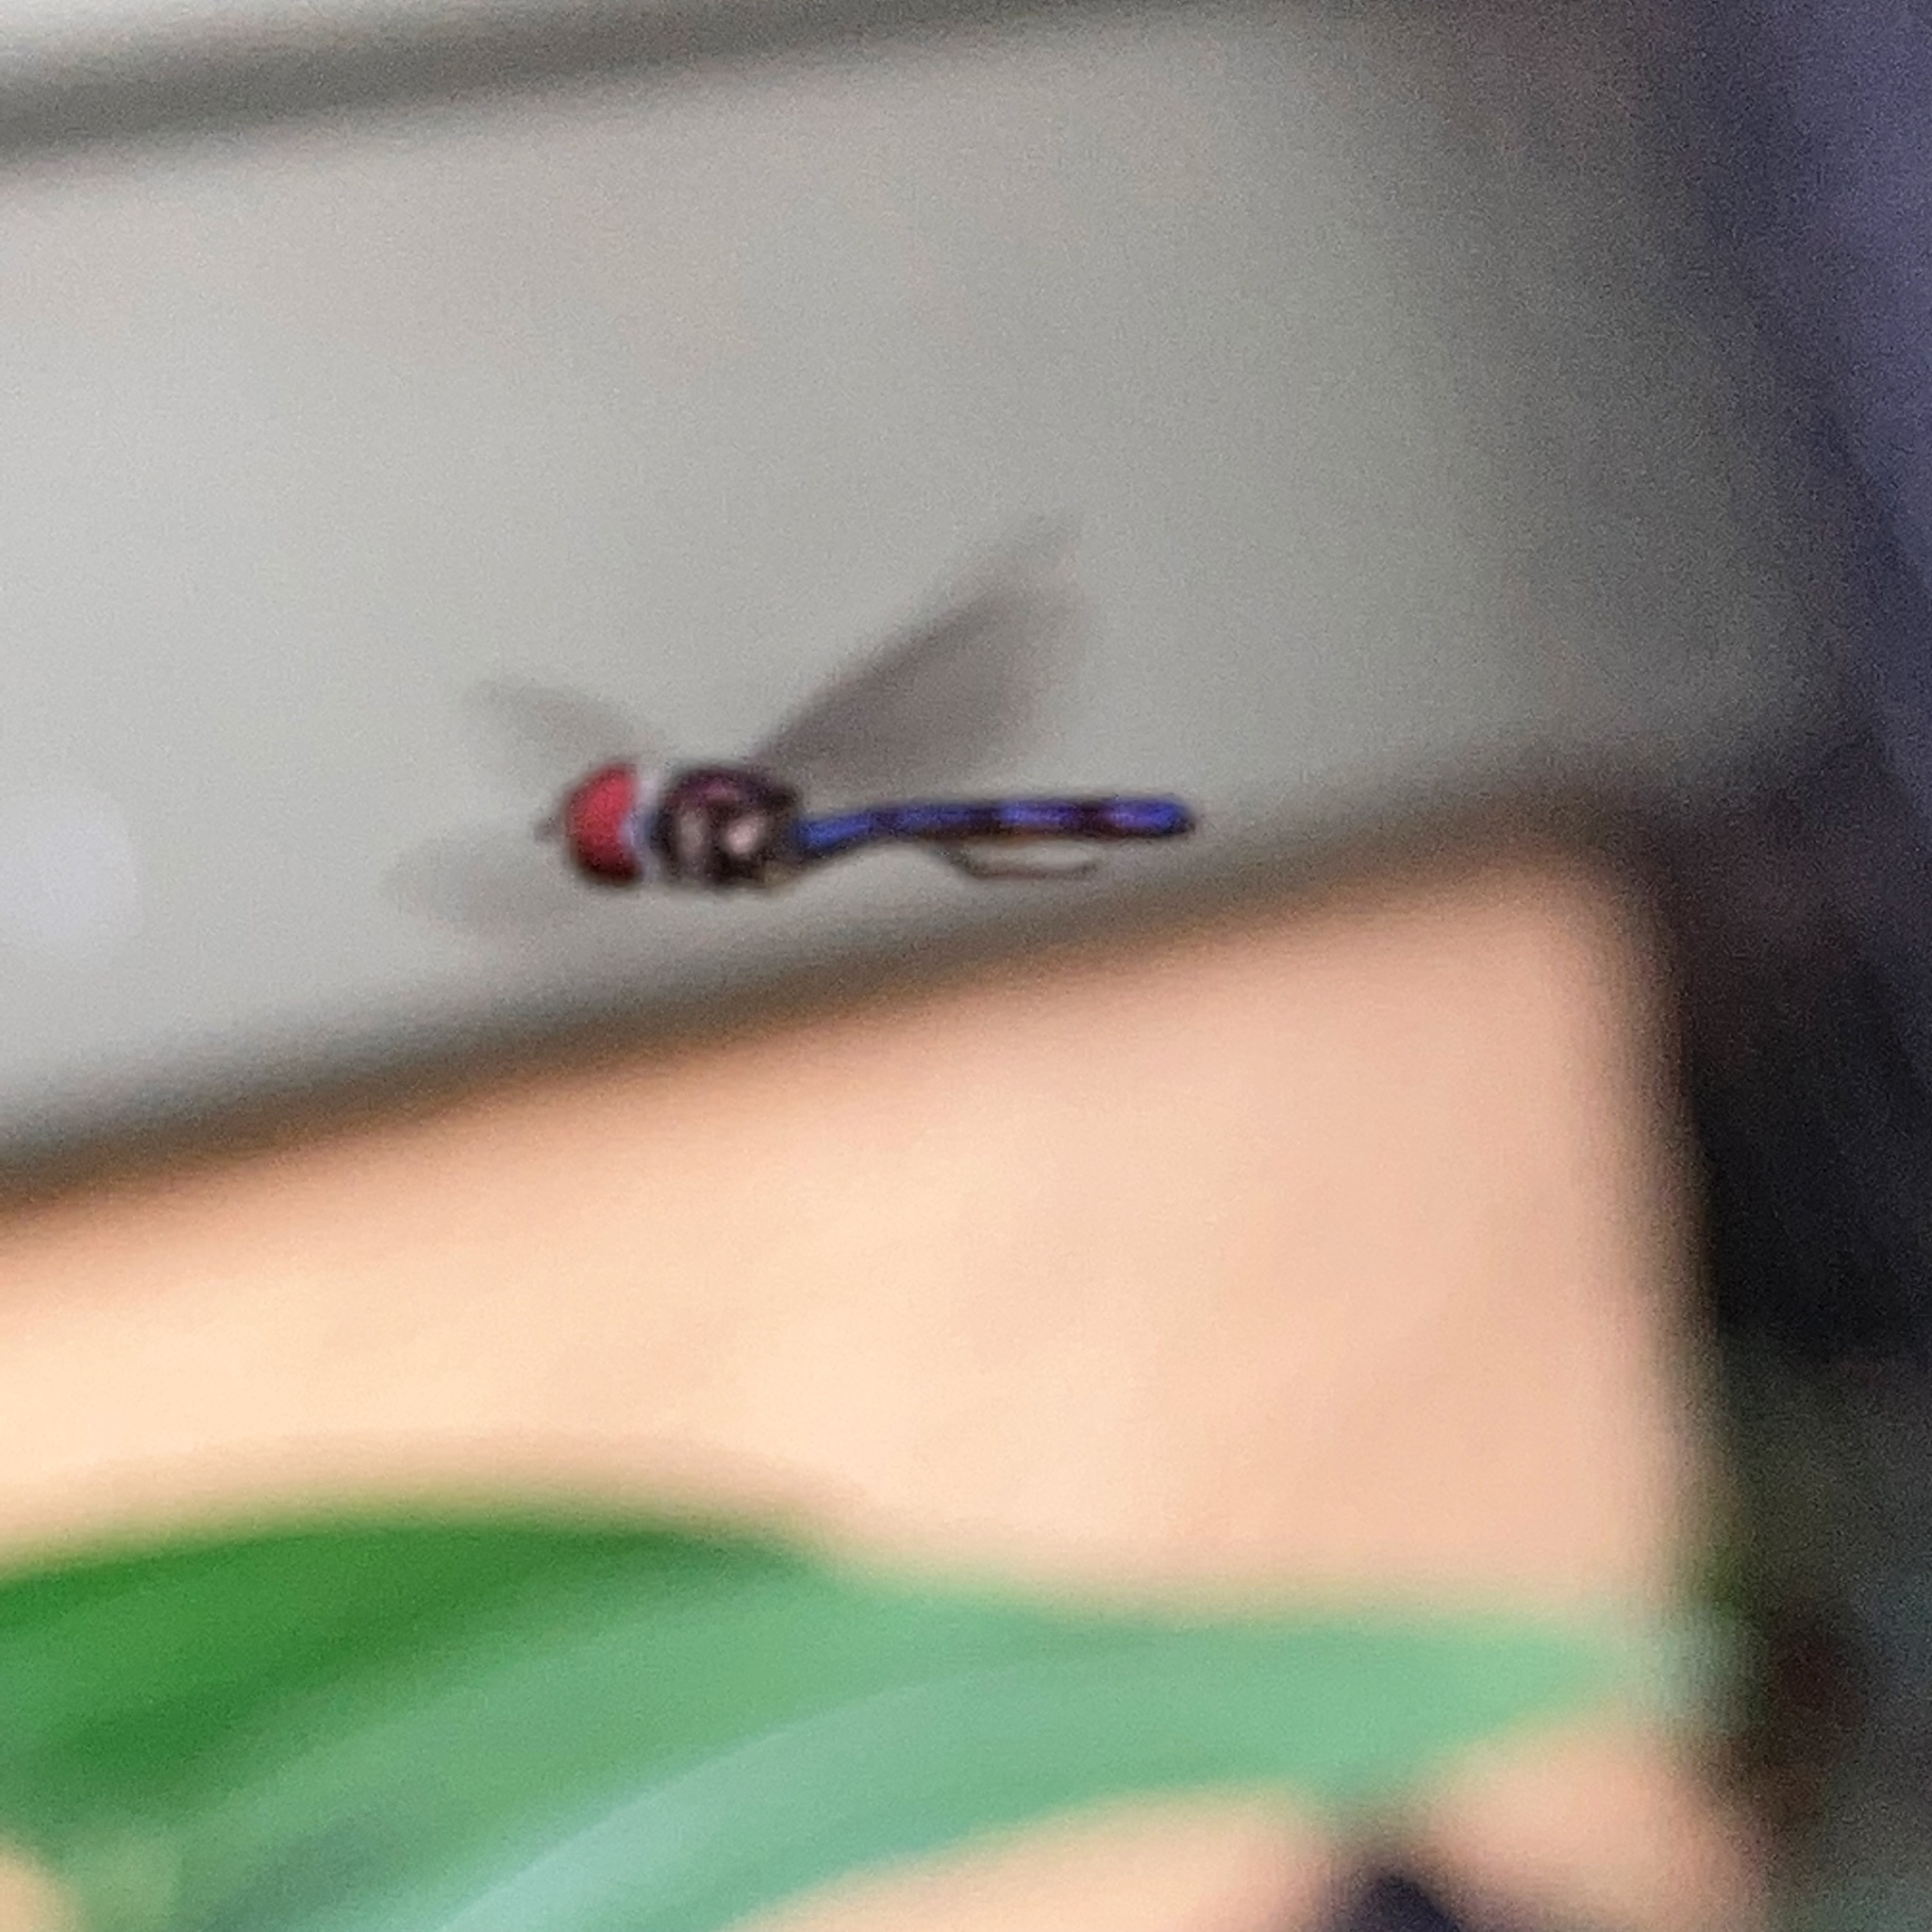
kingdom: Animalia
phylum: Arthropoda
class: Insecta
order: Diptera
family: Syrphidae
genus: Ocyptamus
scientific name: Ocyptamus fuscipennis
